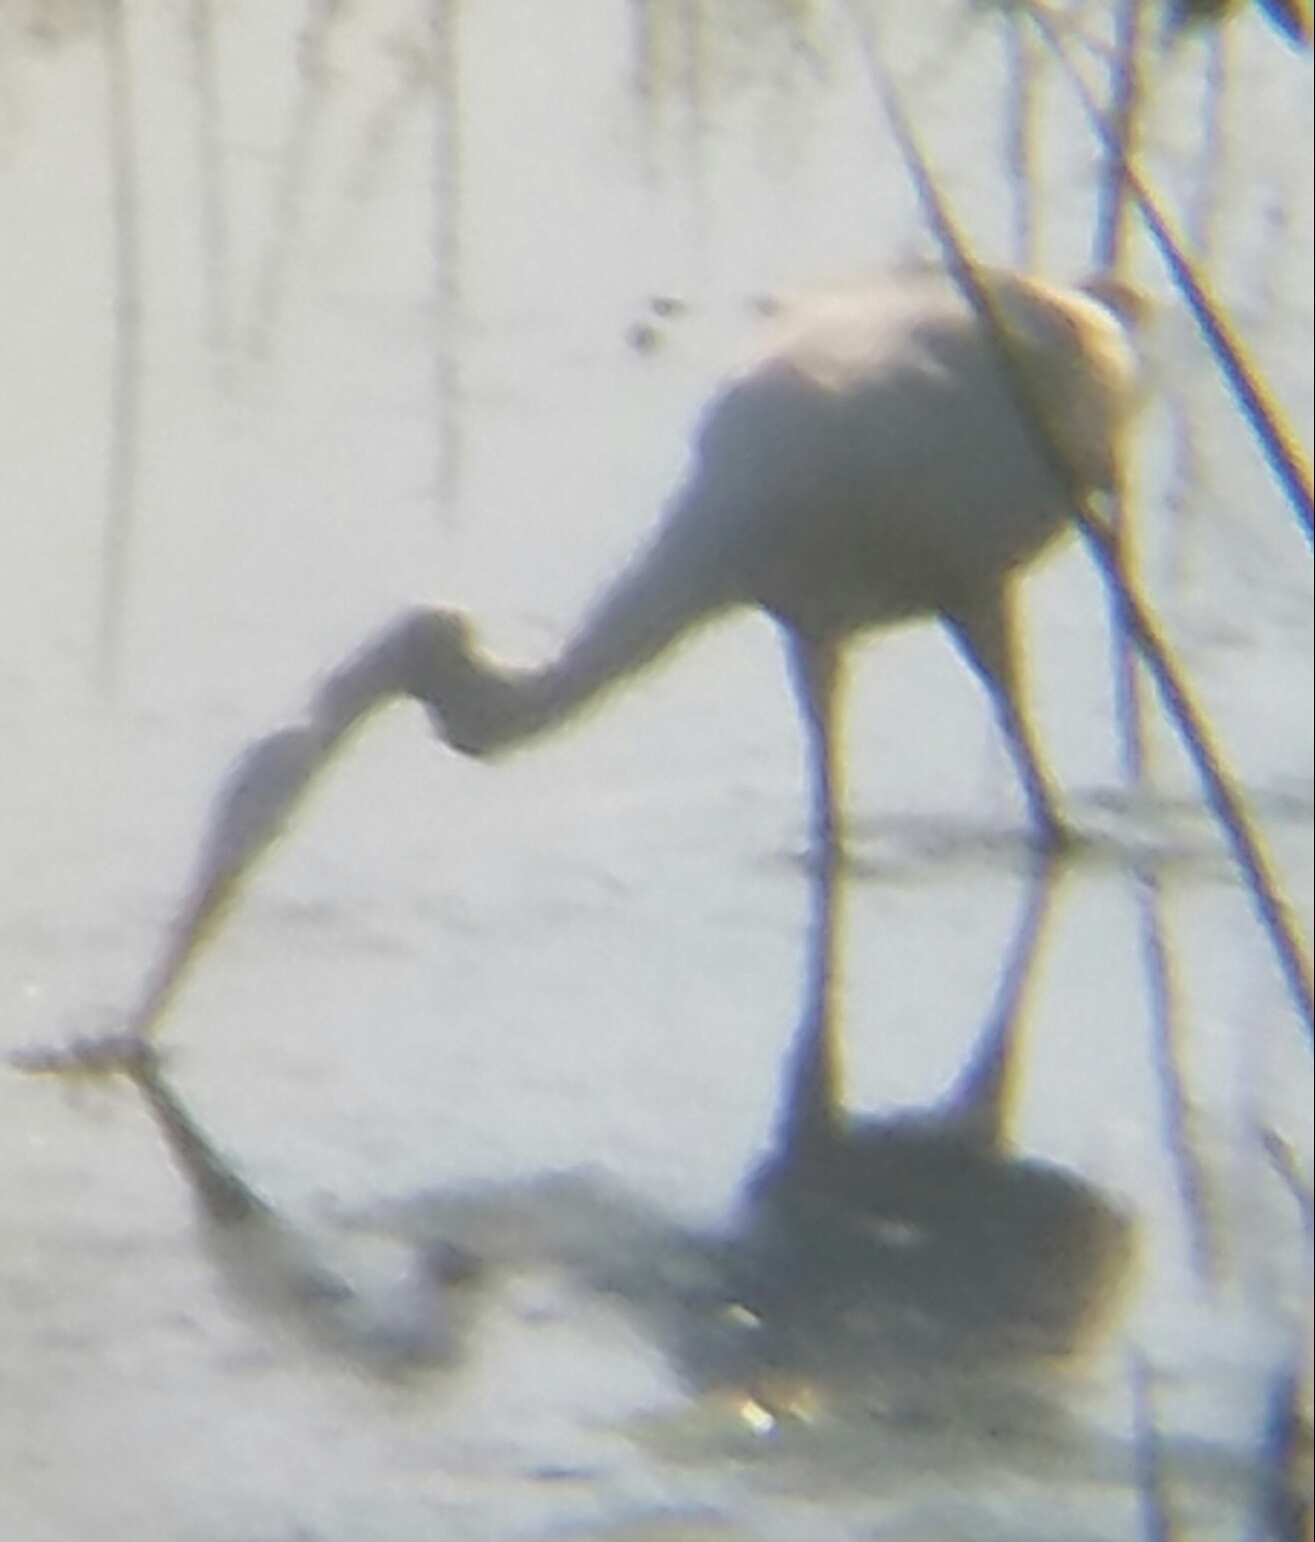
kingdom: Animalia
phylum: Chordata
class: Aves
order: Pelecaniformes
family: Ardeidae
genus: Ardea
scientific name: Ardea alba
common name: Great egret
